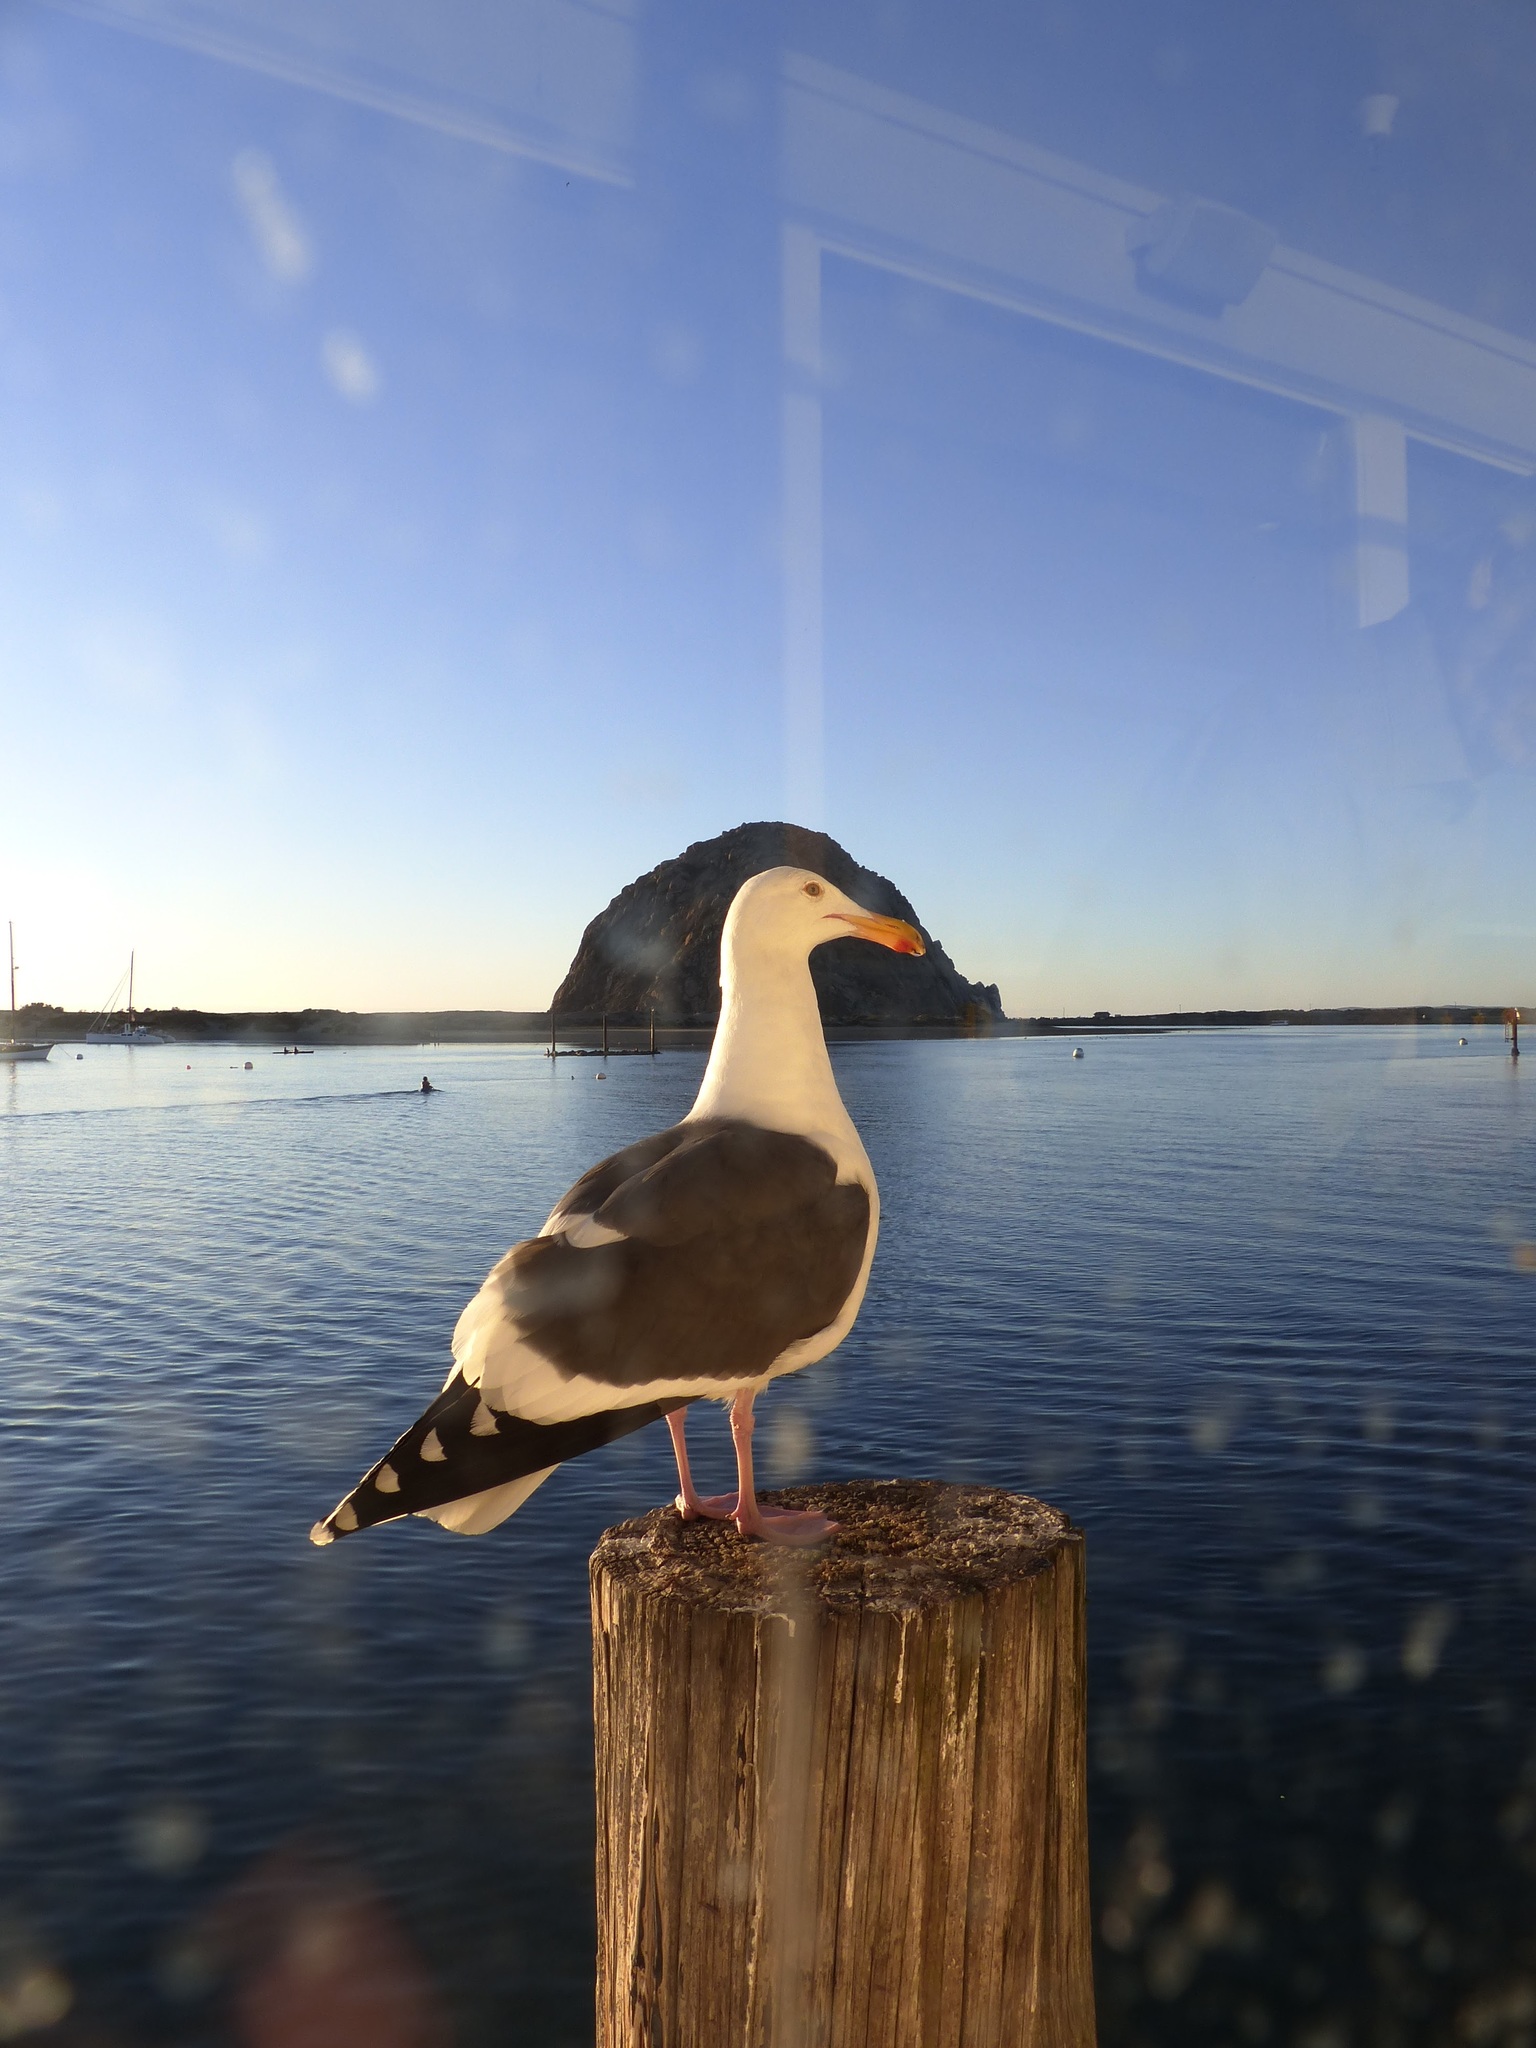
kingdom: Animalia
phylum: Chordata
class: Aves
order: Charadriiformes
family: Laridae
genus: Larus
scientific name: Larus occidentalis
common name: Western gull
